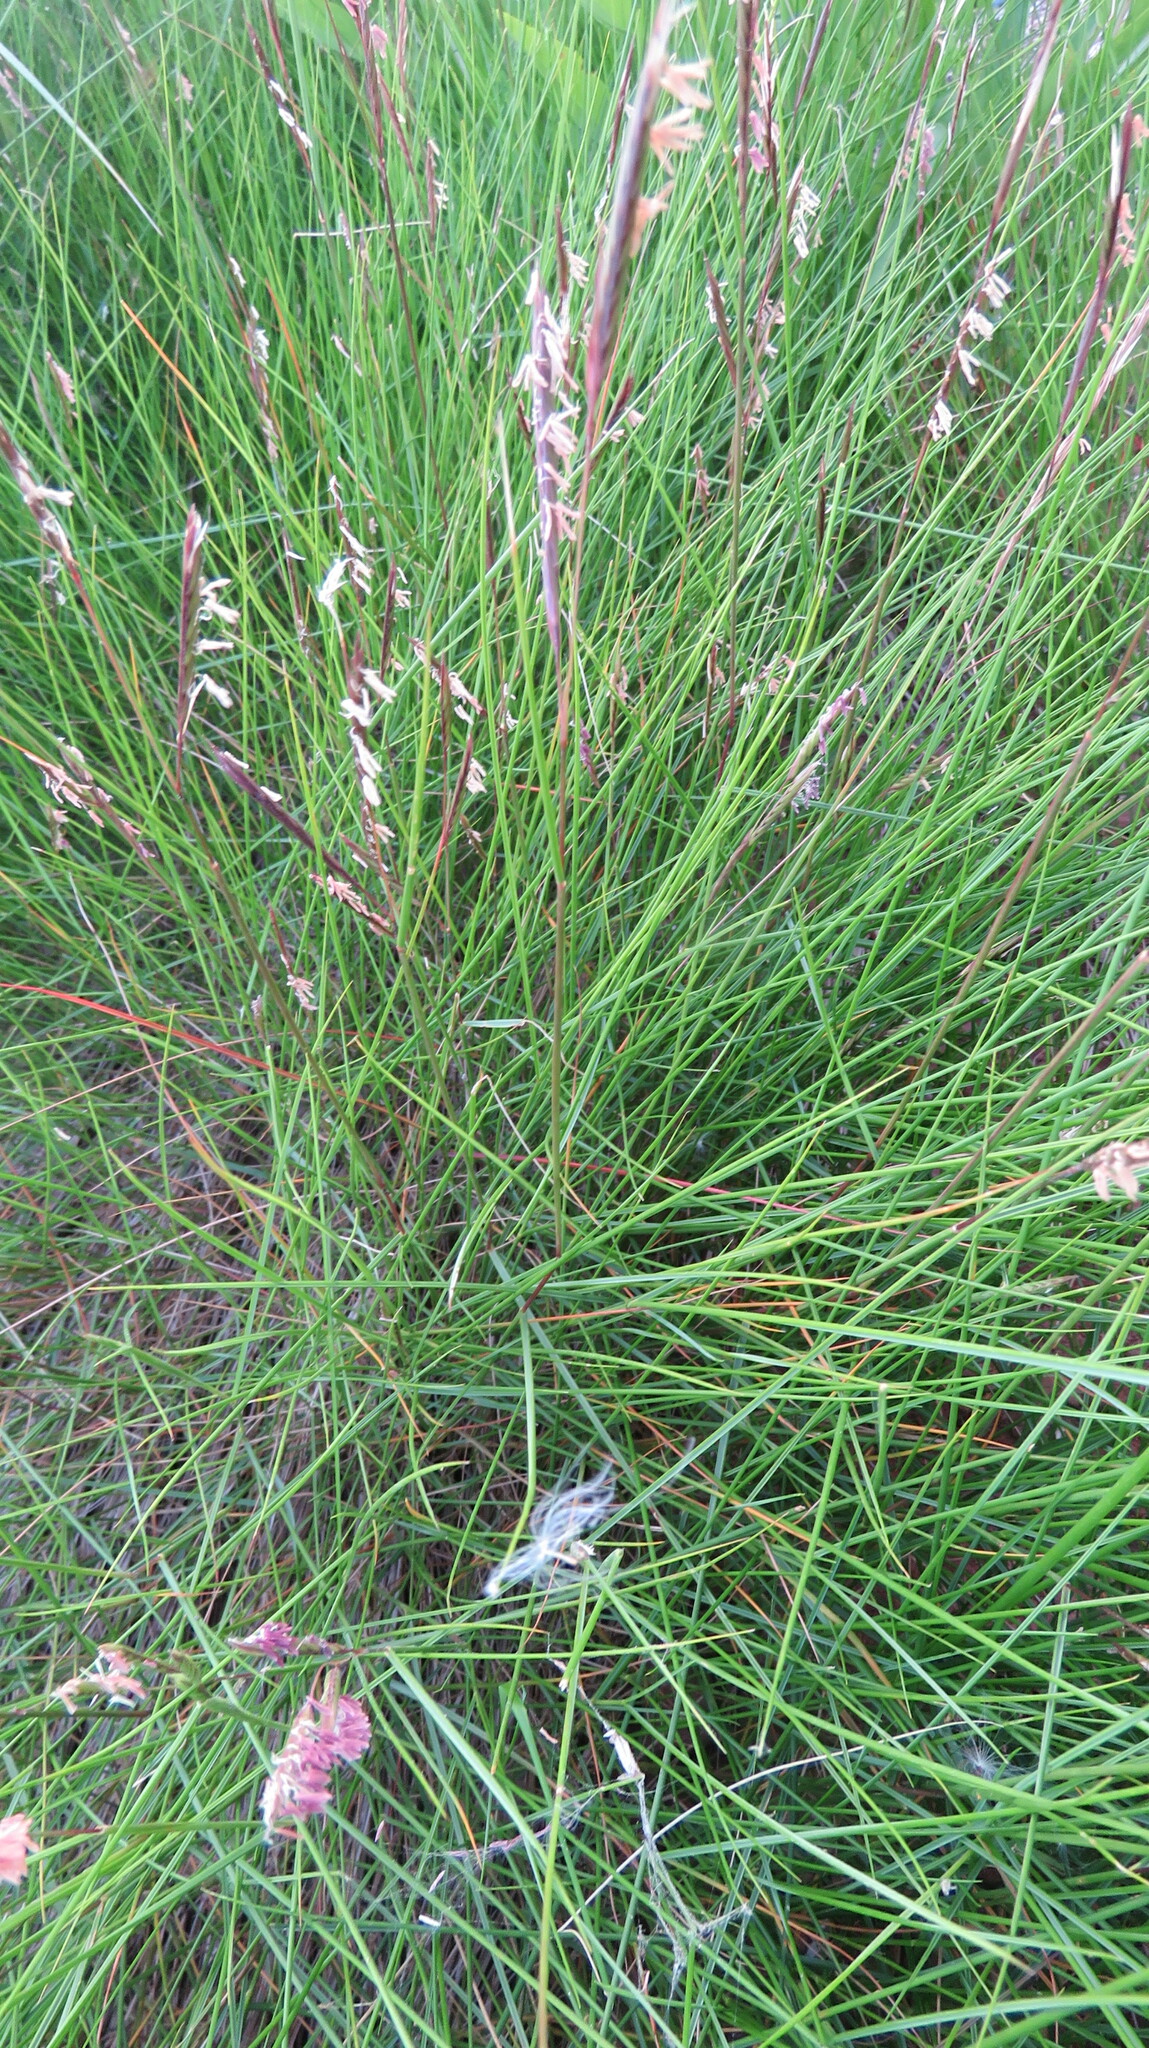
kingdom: Plantae
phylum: Tracheophyta
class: Liliopsida
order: Poales
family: Poaceae
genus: Sporobolus
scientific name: Sporobolus pumilus
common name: Highwater grass
